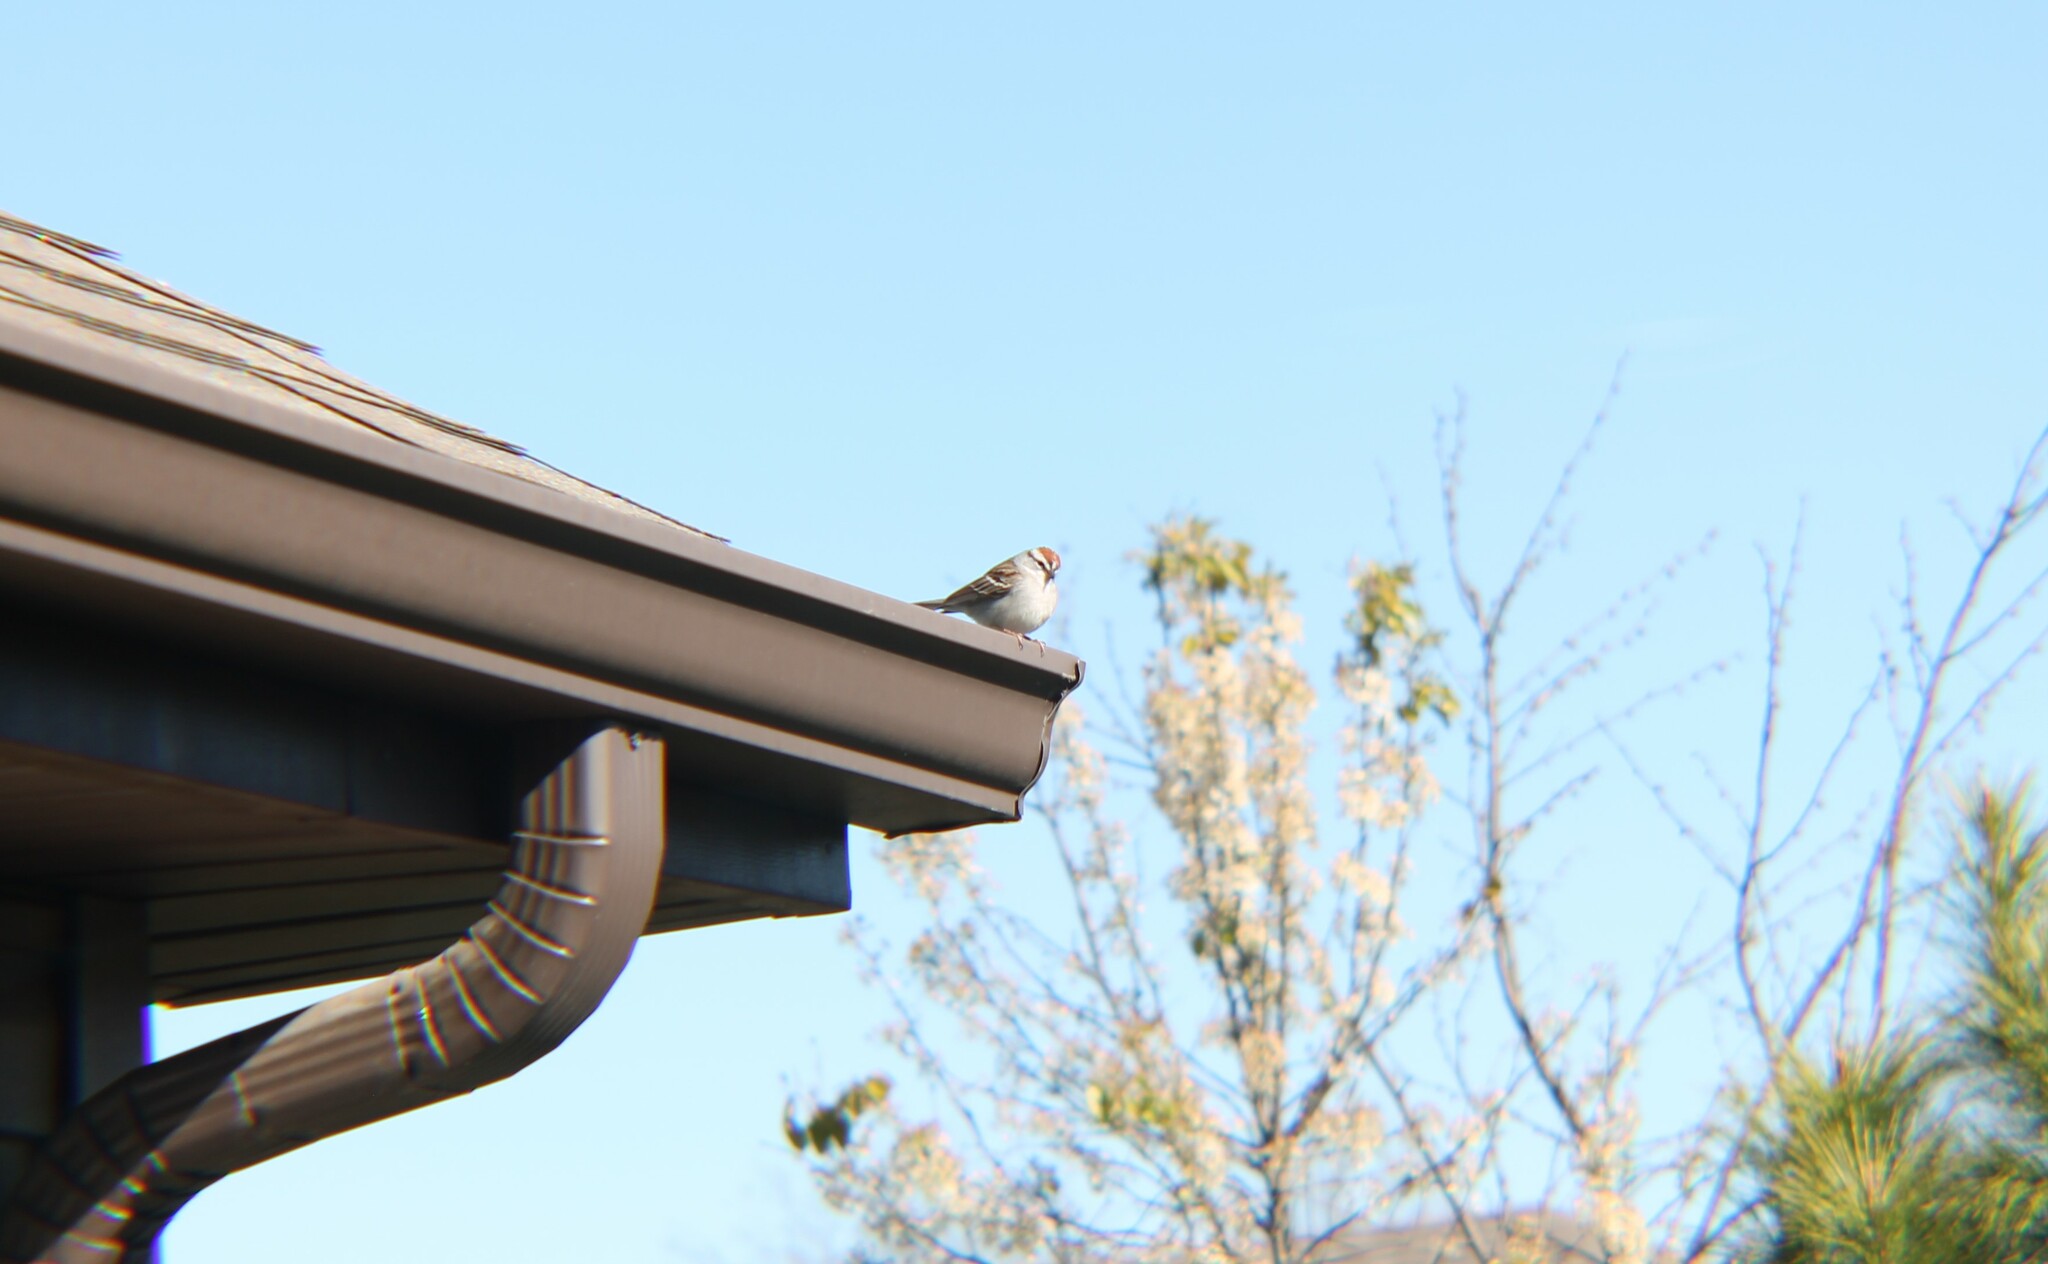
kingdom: Animalia
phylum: Chordata
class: Aves
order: Passeriformes
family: Passerellidae
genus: Spizella
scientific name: Spizella passerina
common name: Chipping sparrow
